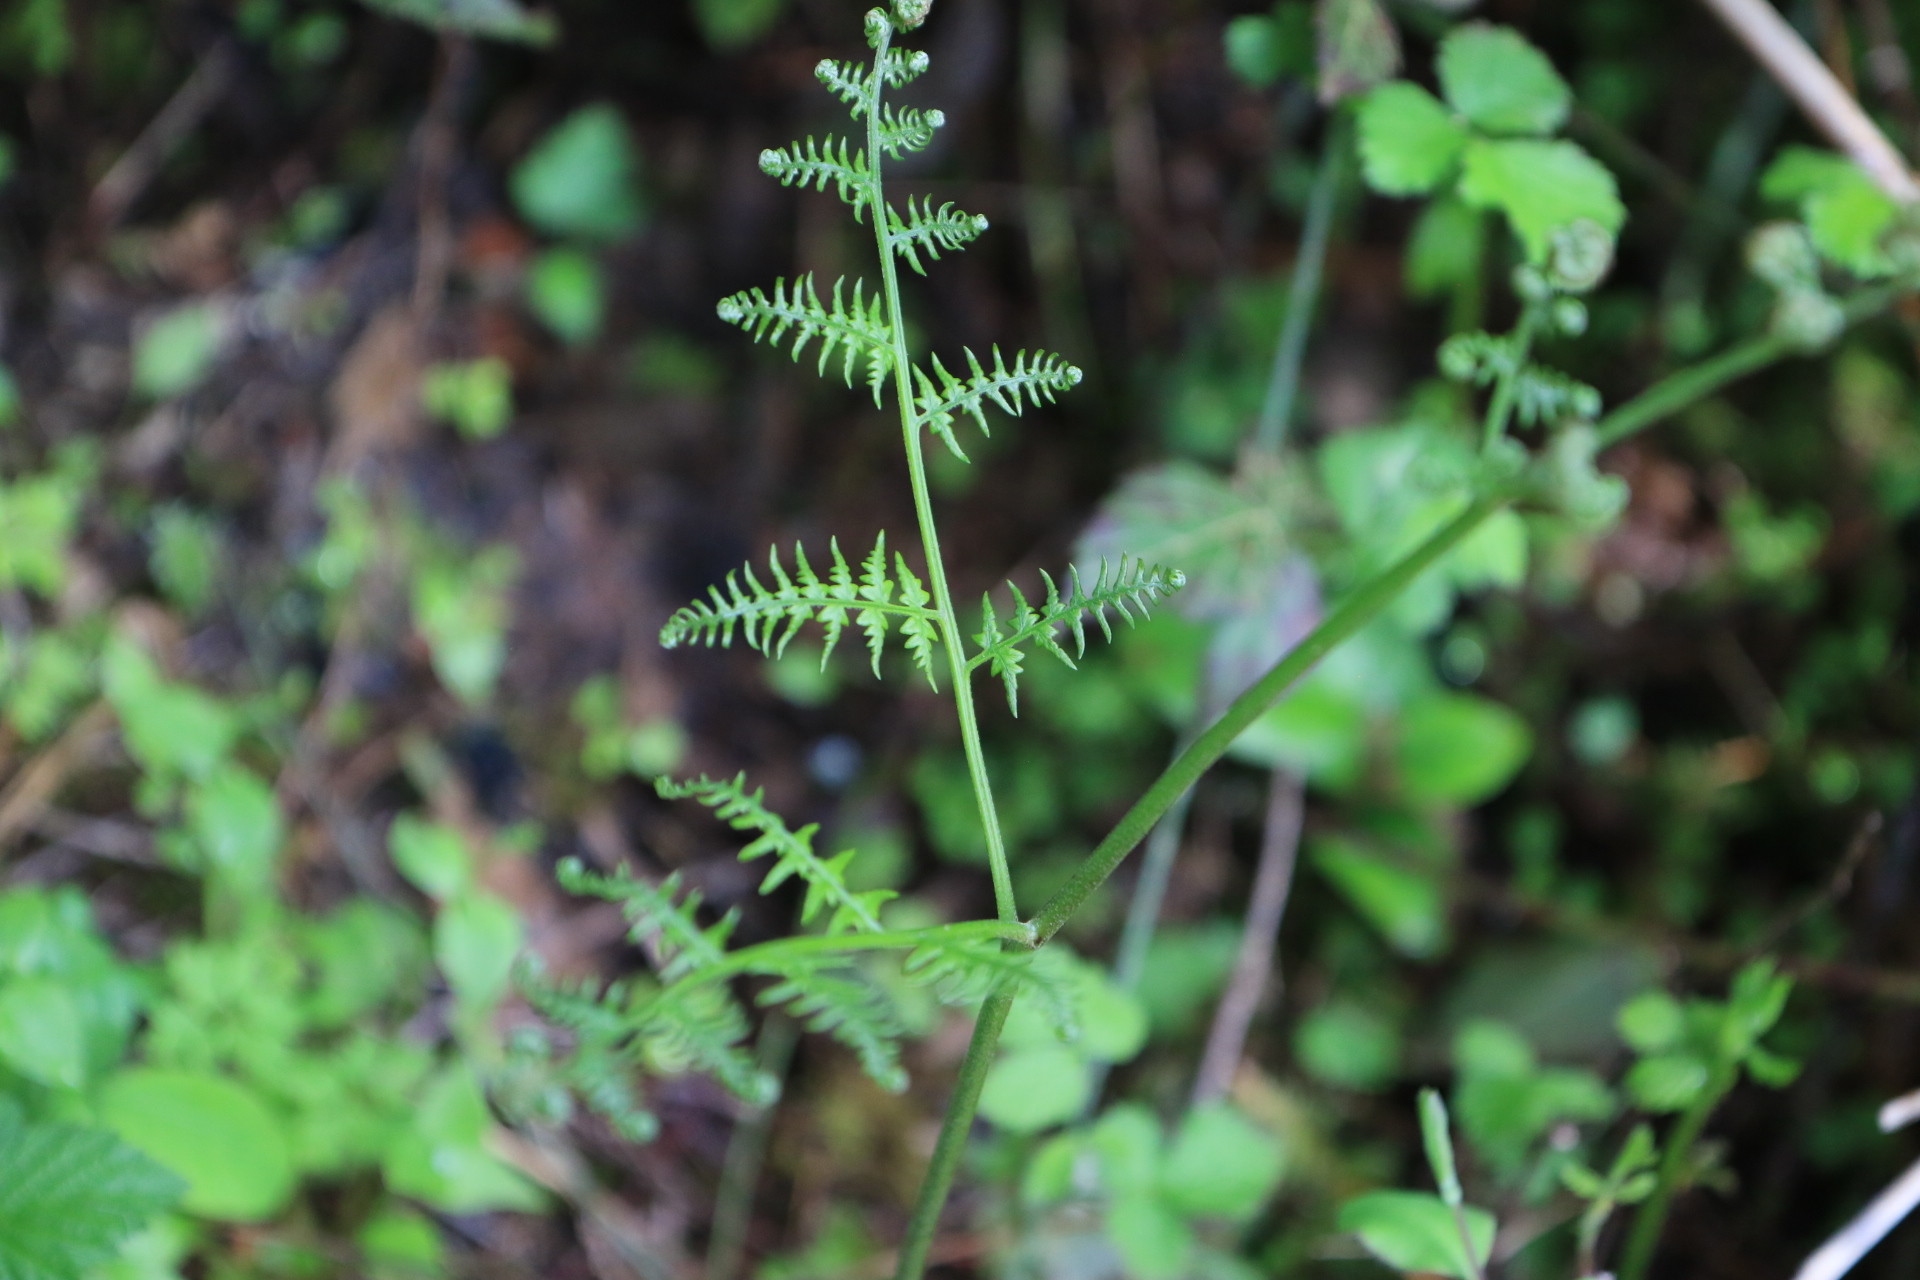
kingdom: Plantae
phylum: Tracheophyta
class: Polypodiopsida
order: Polypodiales
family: Dennstaedtiaceae
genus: Pteridium
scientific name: Pteridium aquilinum
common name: Bracken
